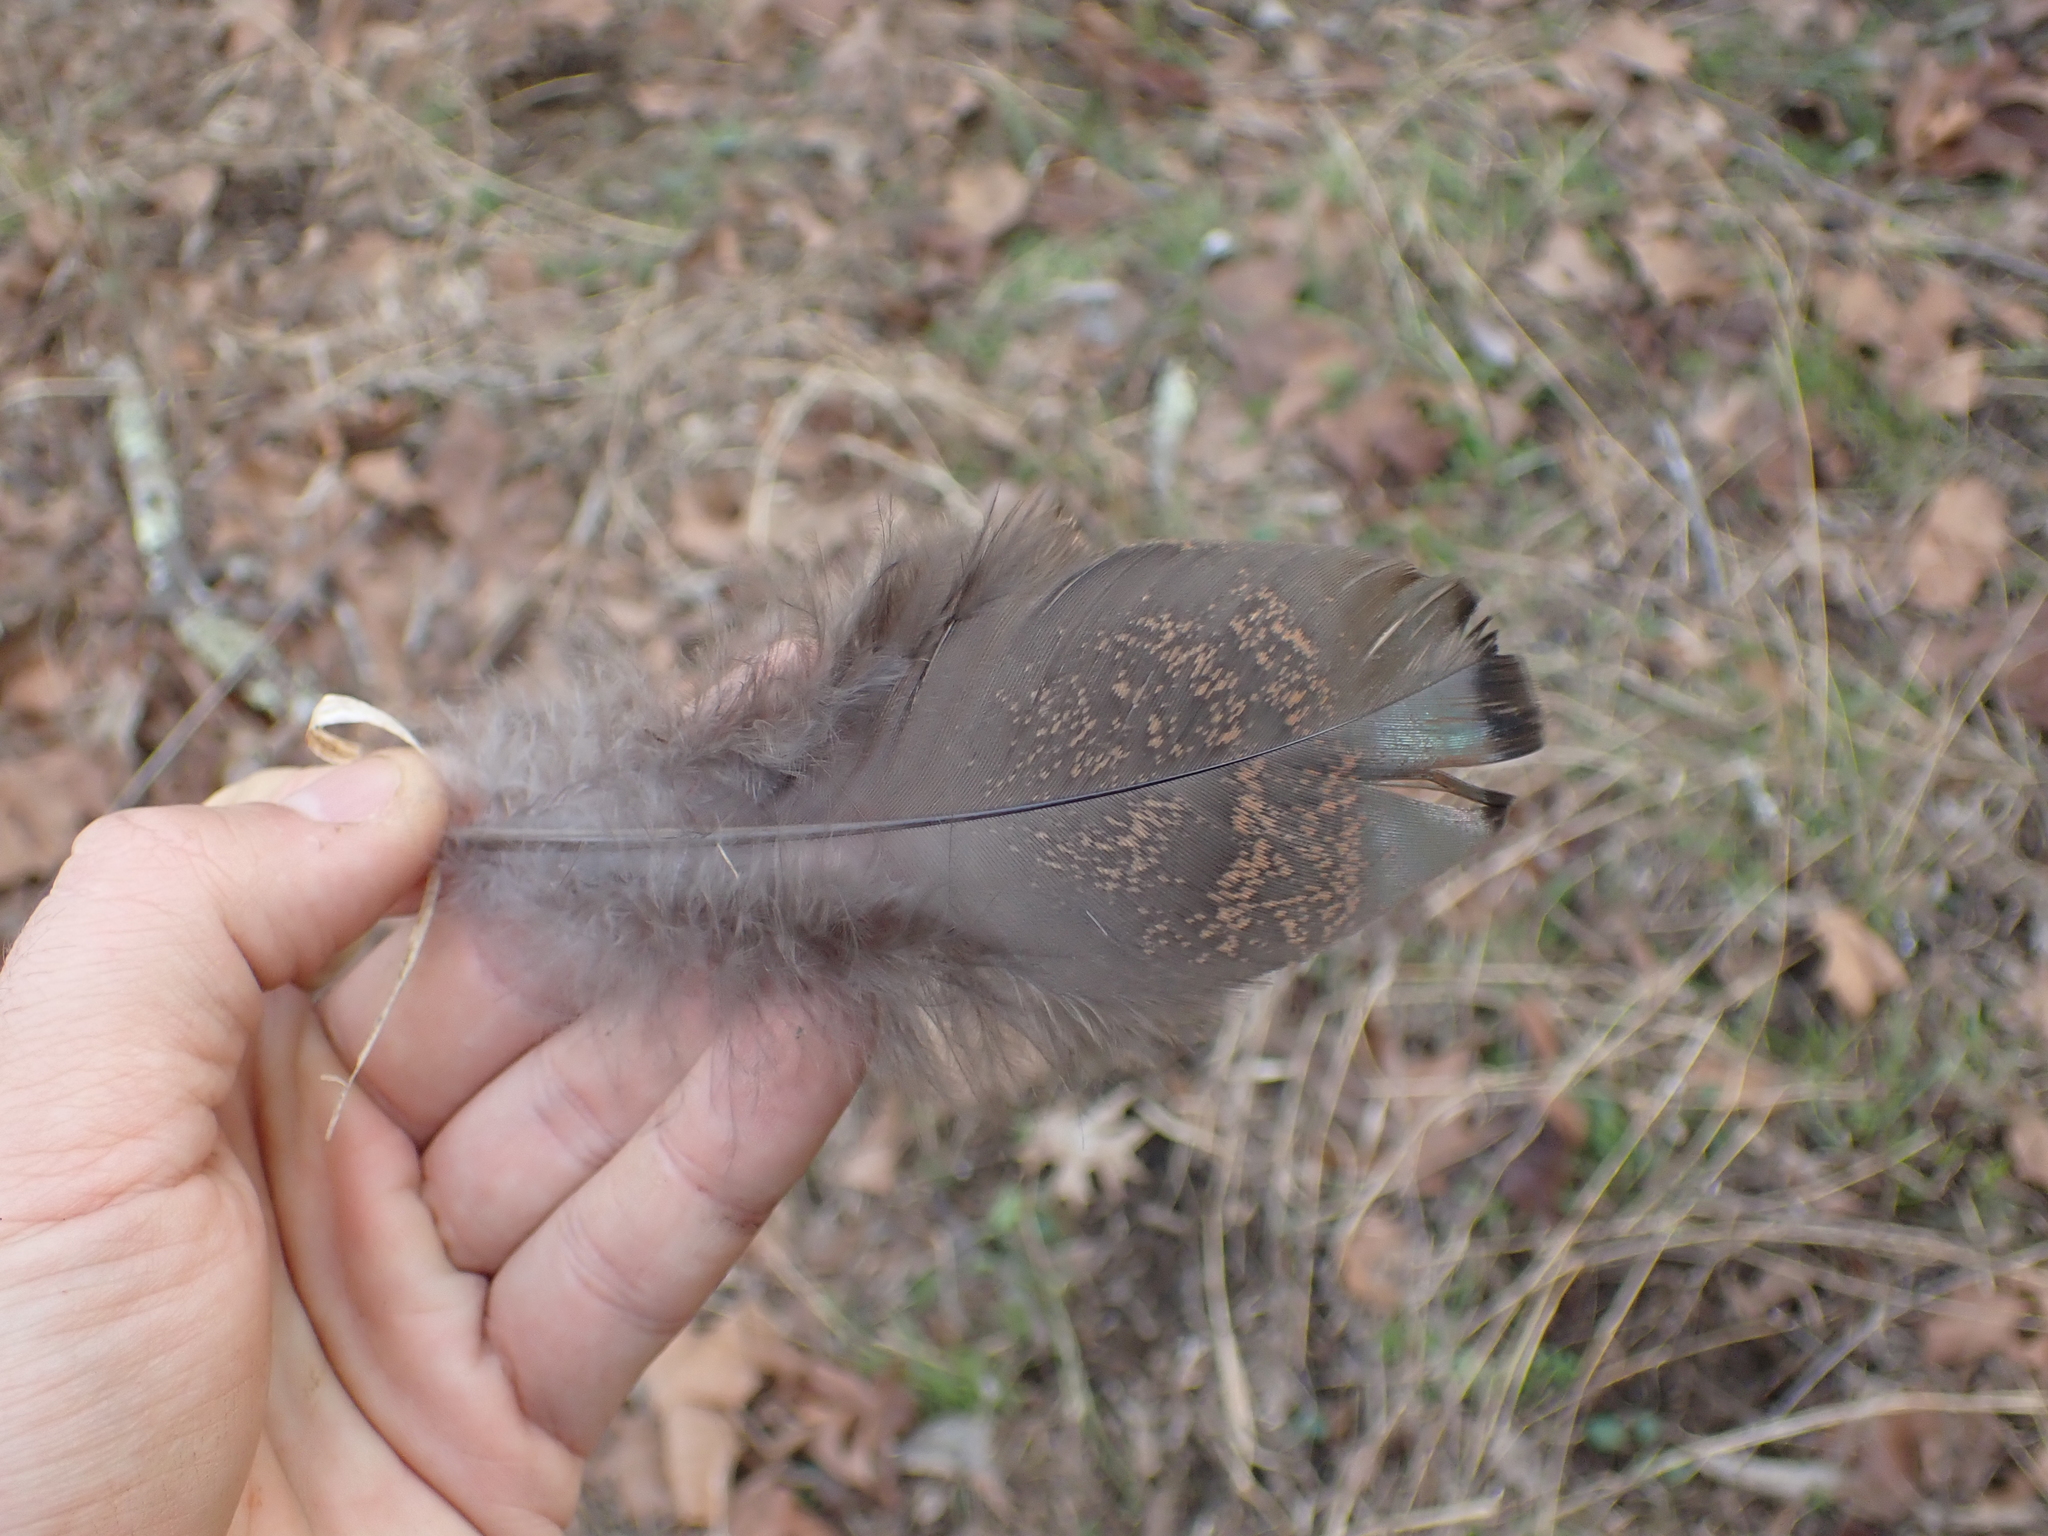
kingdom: Animalia
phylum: Chordata
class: Aves
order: Galliformes
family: Phasianidae
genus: Meleagris
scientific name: Meleagris gallopavo
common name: Wild turkey
